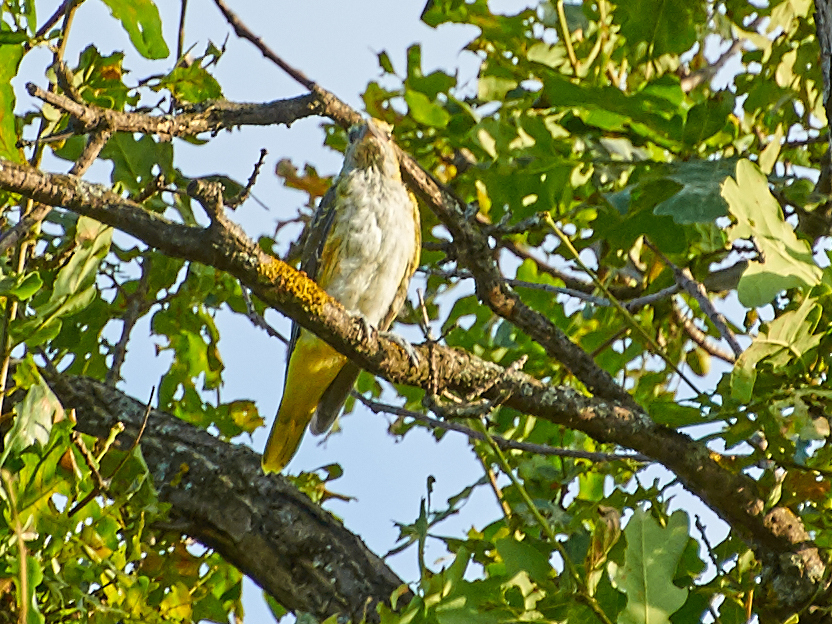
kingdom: Animalia
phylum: Chordata
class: Aves
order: Passeriformes
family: Oriolidae
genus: Oriolus
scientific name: Oriolus oriolus
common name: Eurasian golden oriole
